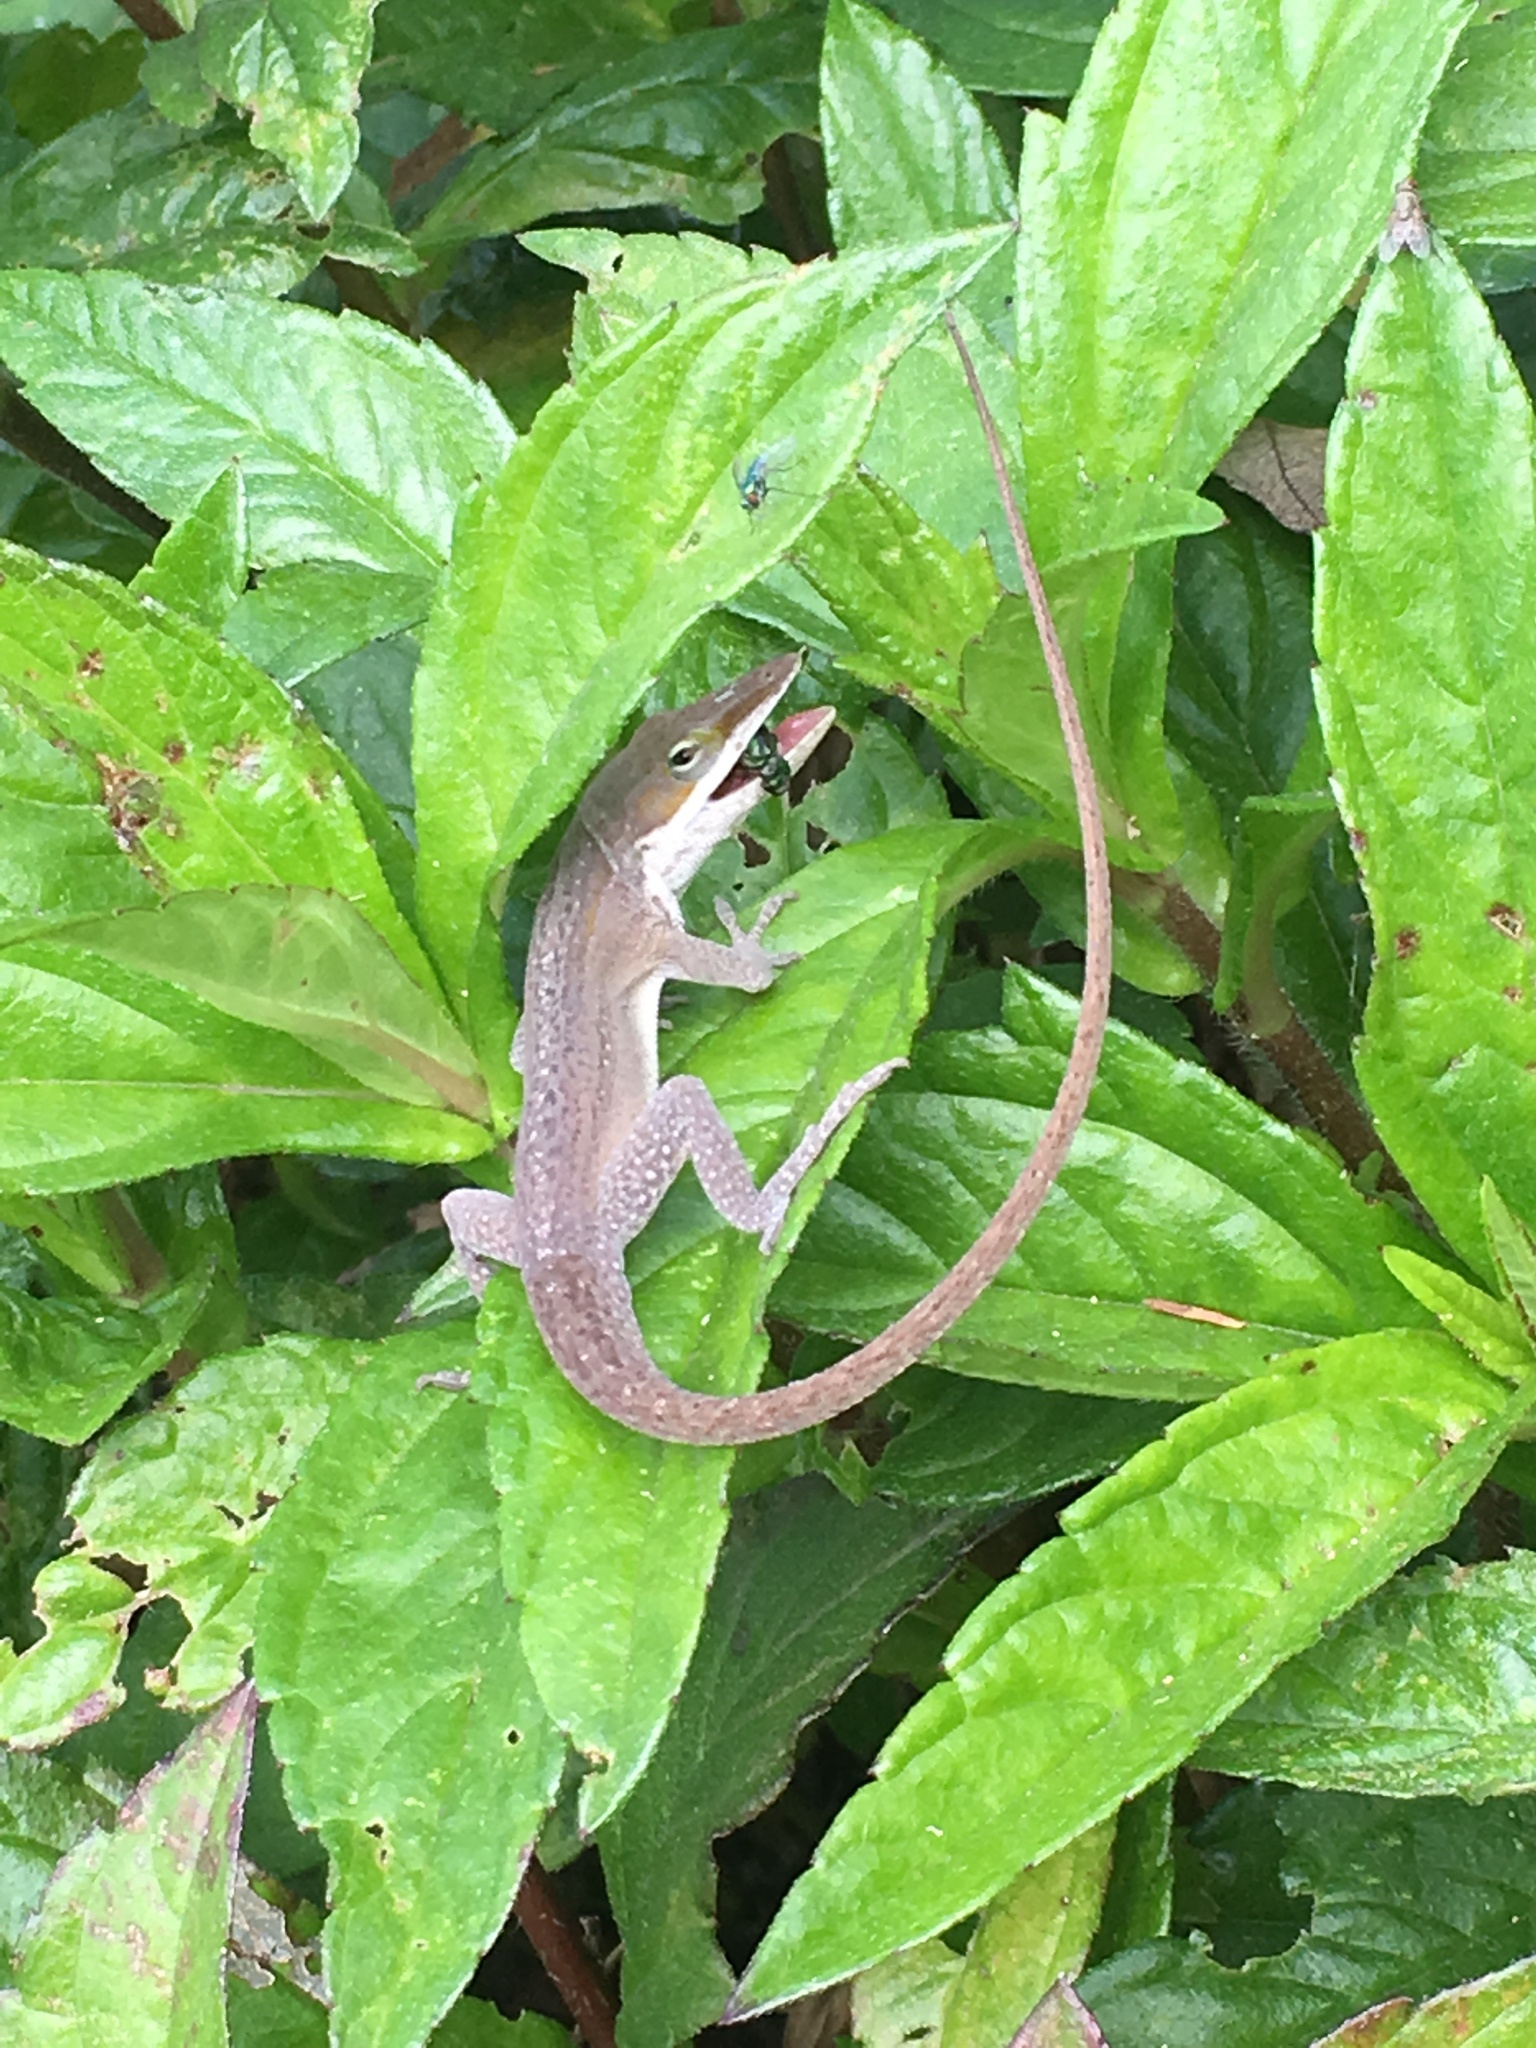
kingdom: Animalia
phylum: Chordata
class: Squamata
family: Dactyloidae
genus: Anolis
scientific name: Anolis carolinensis
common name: Green anole
